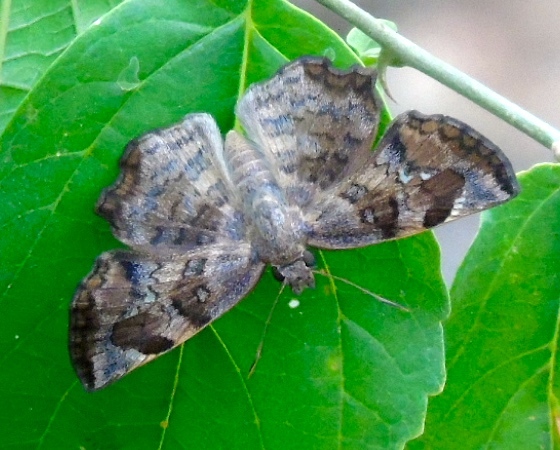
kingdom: Animalia
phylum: Arthropoda
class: Insecta
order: Lepidoptera
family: Hesperiidae
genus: Antigonus
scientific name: Antigonus erosus
